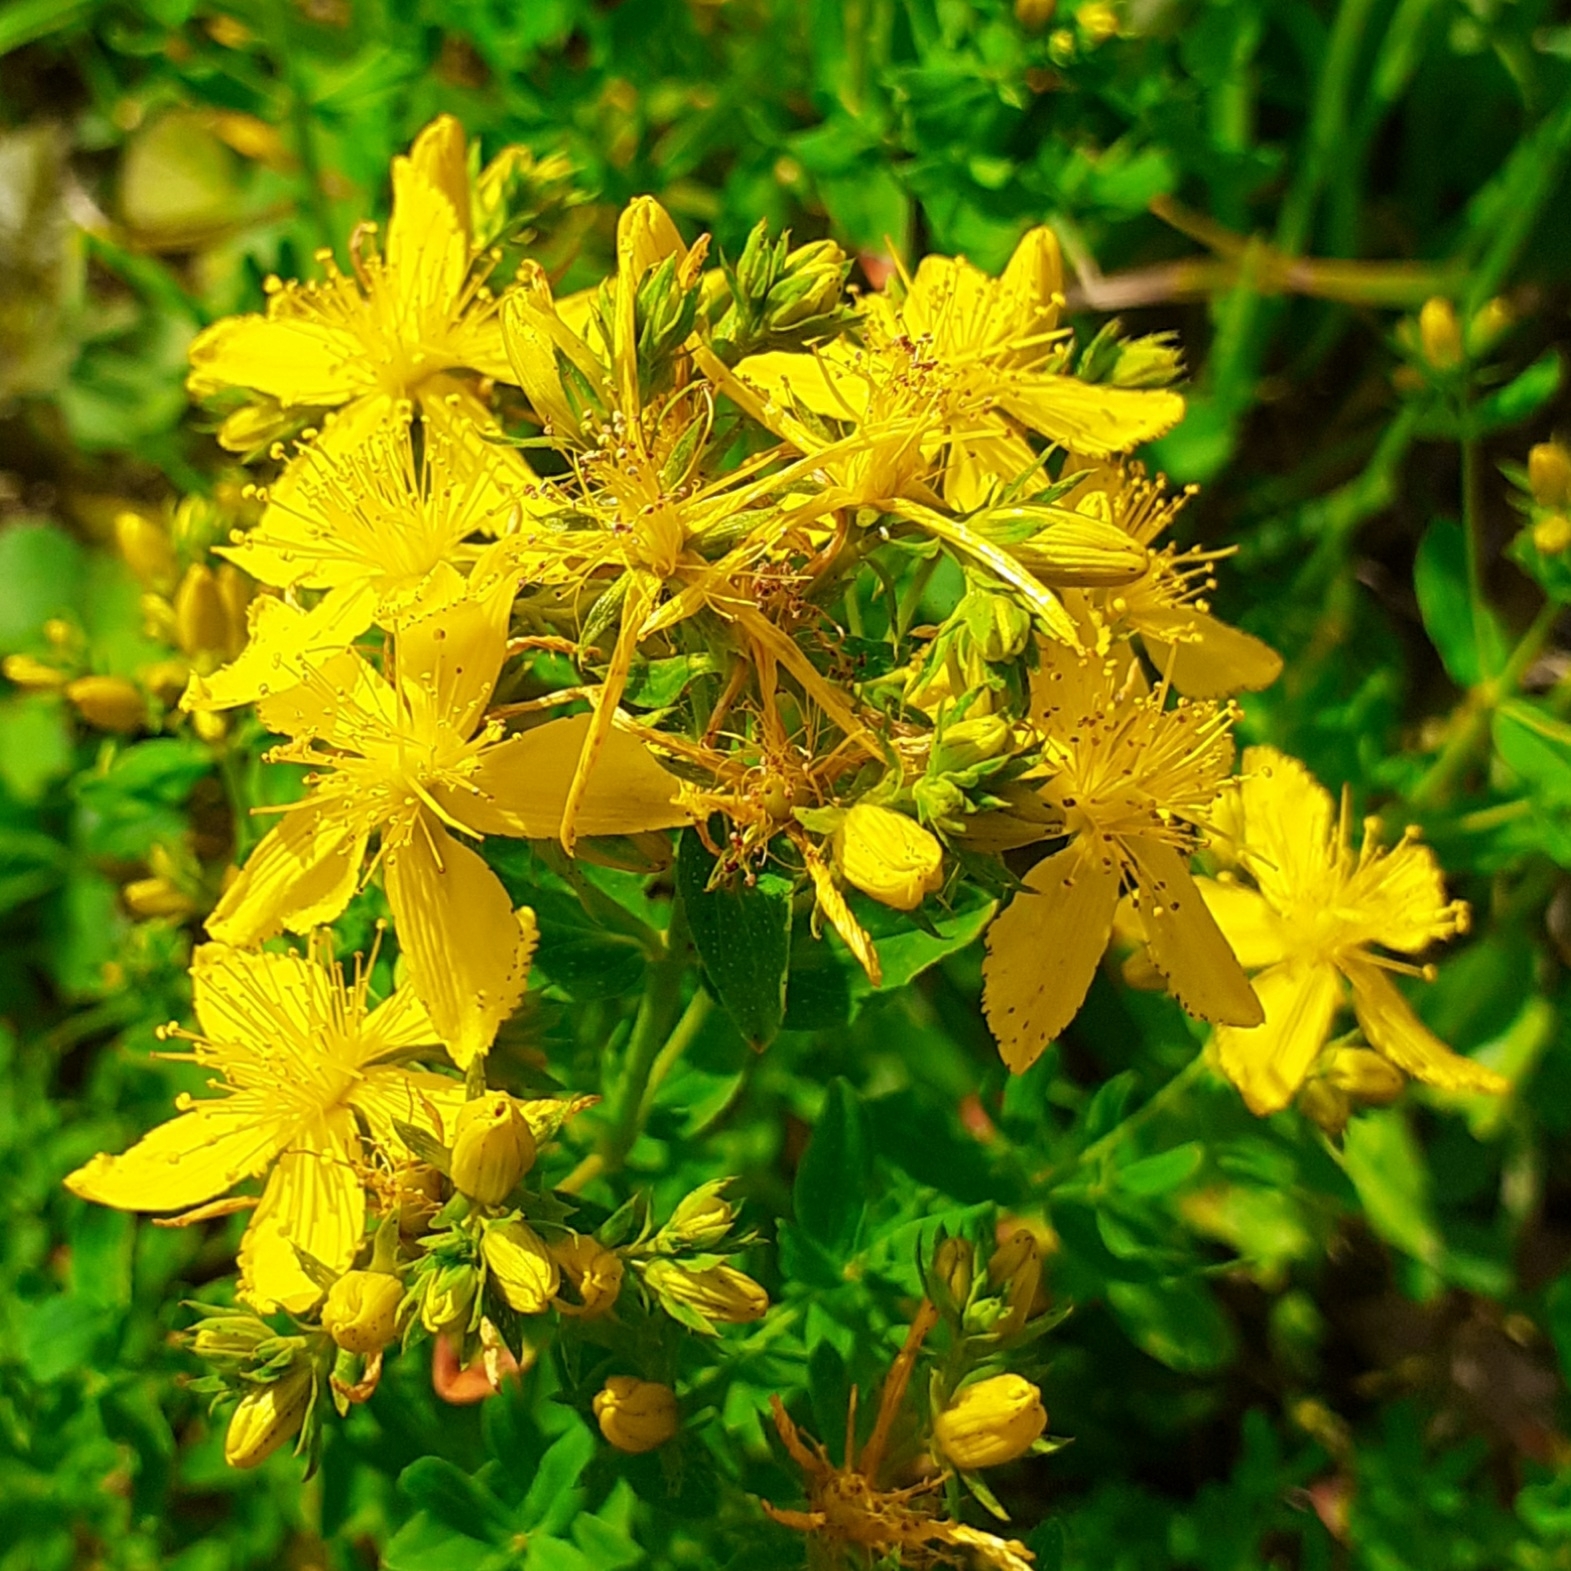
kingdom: Plantae
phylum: Tracheophyta
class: Magnoliopsida
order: Malpighiales
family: Hypericaceae
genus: Hypericum
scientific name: Hypericum perforatum
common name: Common st. johnswort
